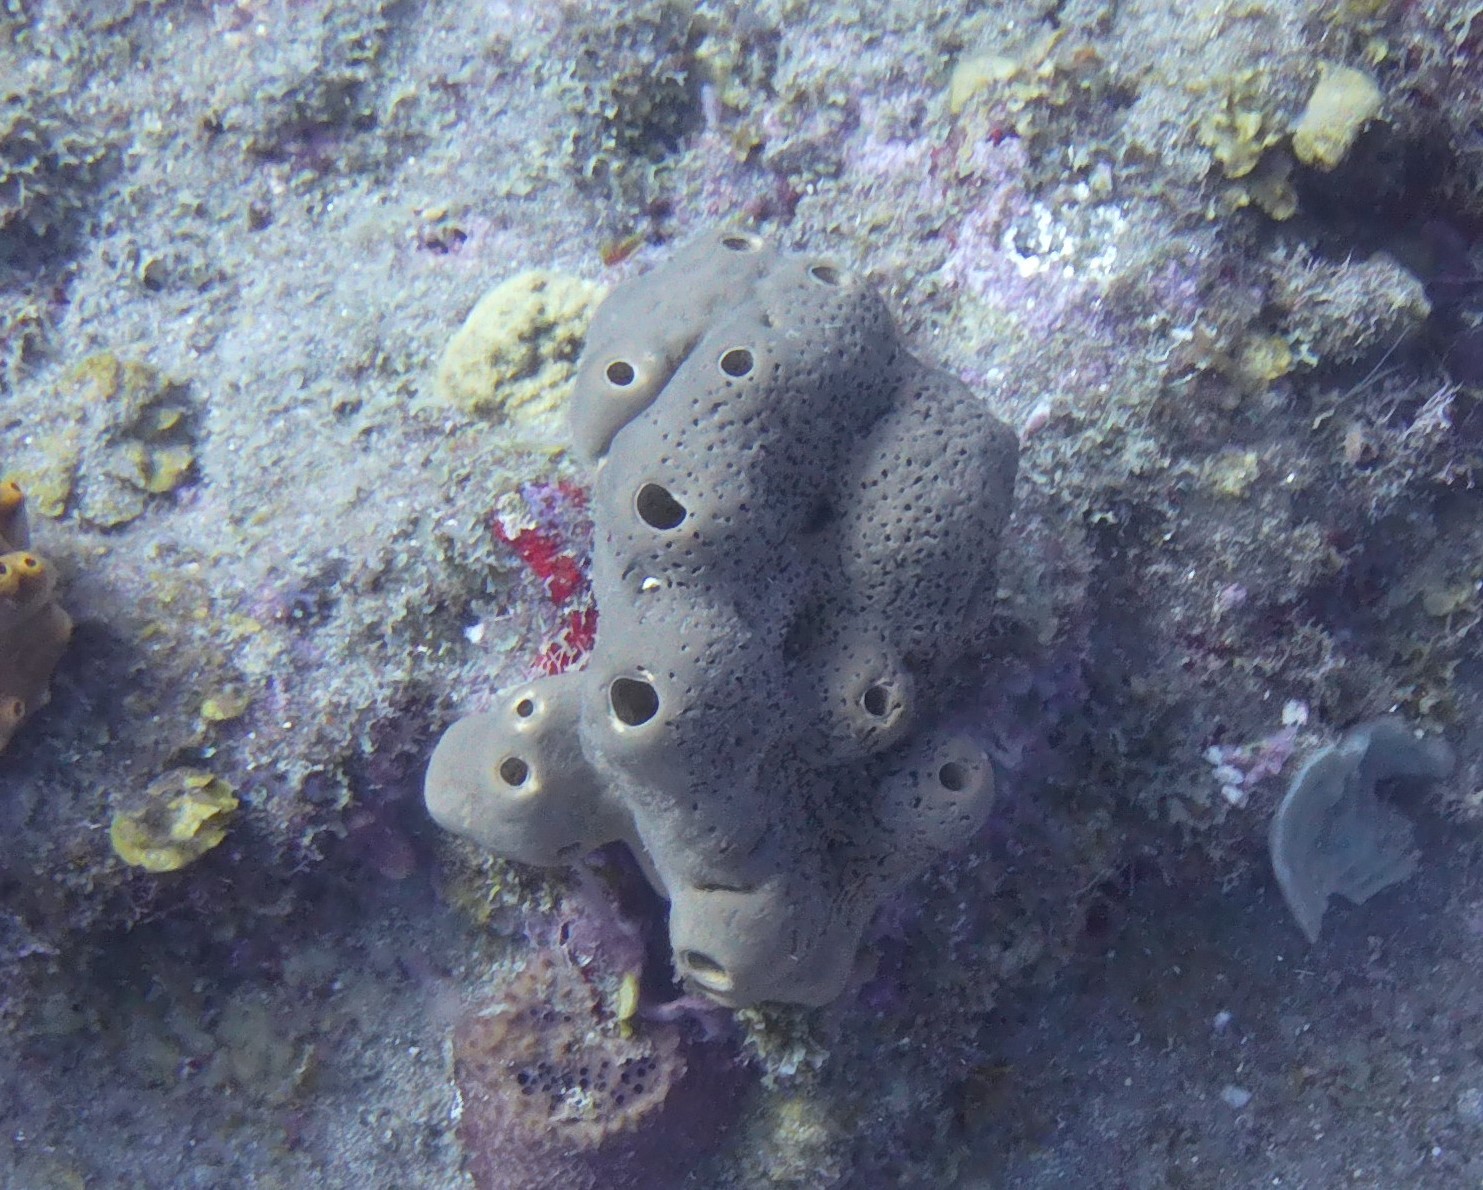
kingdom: Animalia
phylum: Porifera
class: Demospongiae
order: Agelasida
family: Agelasidae
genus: Agelas
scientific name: Agelas conifera
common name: Brown tube sponge
